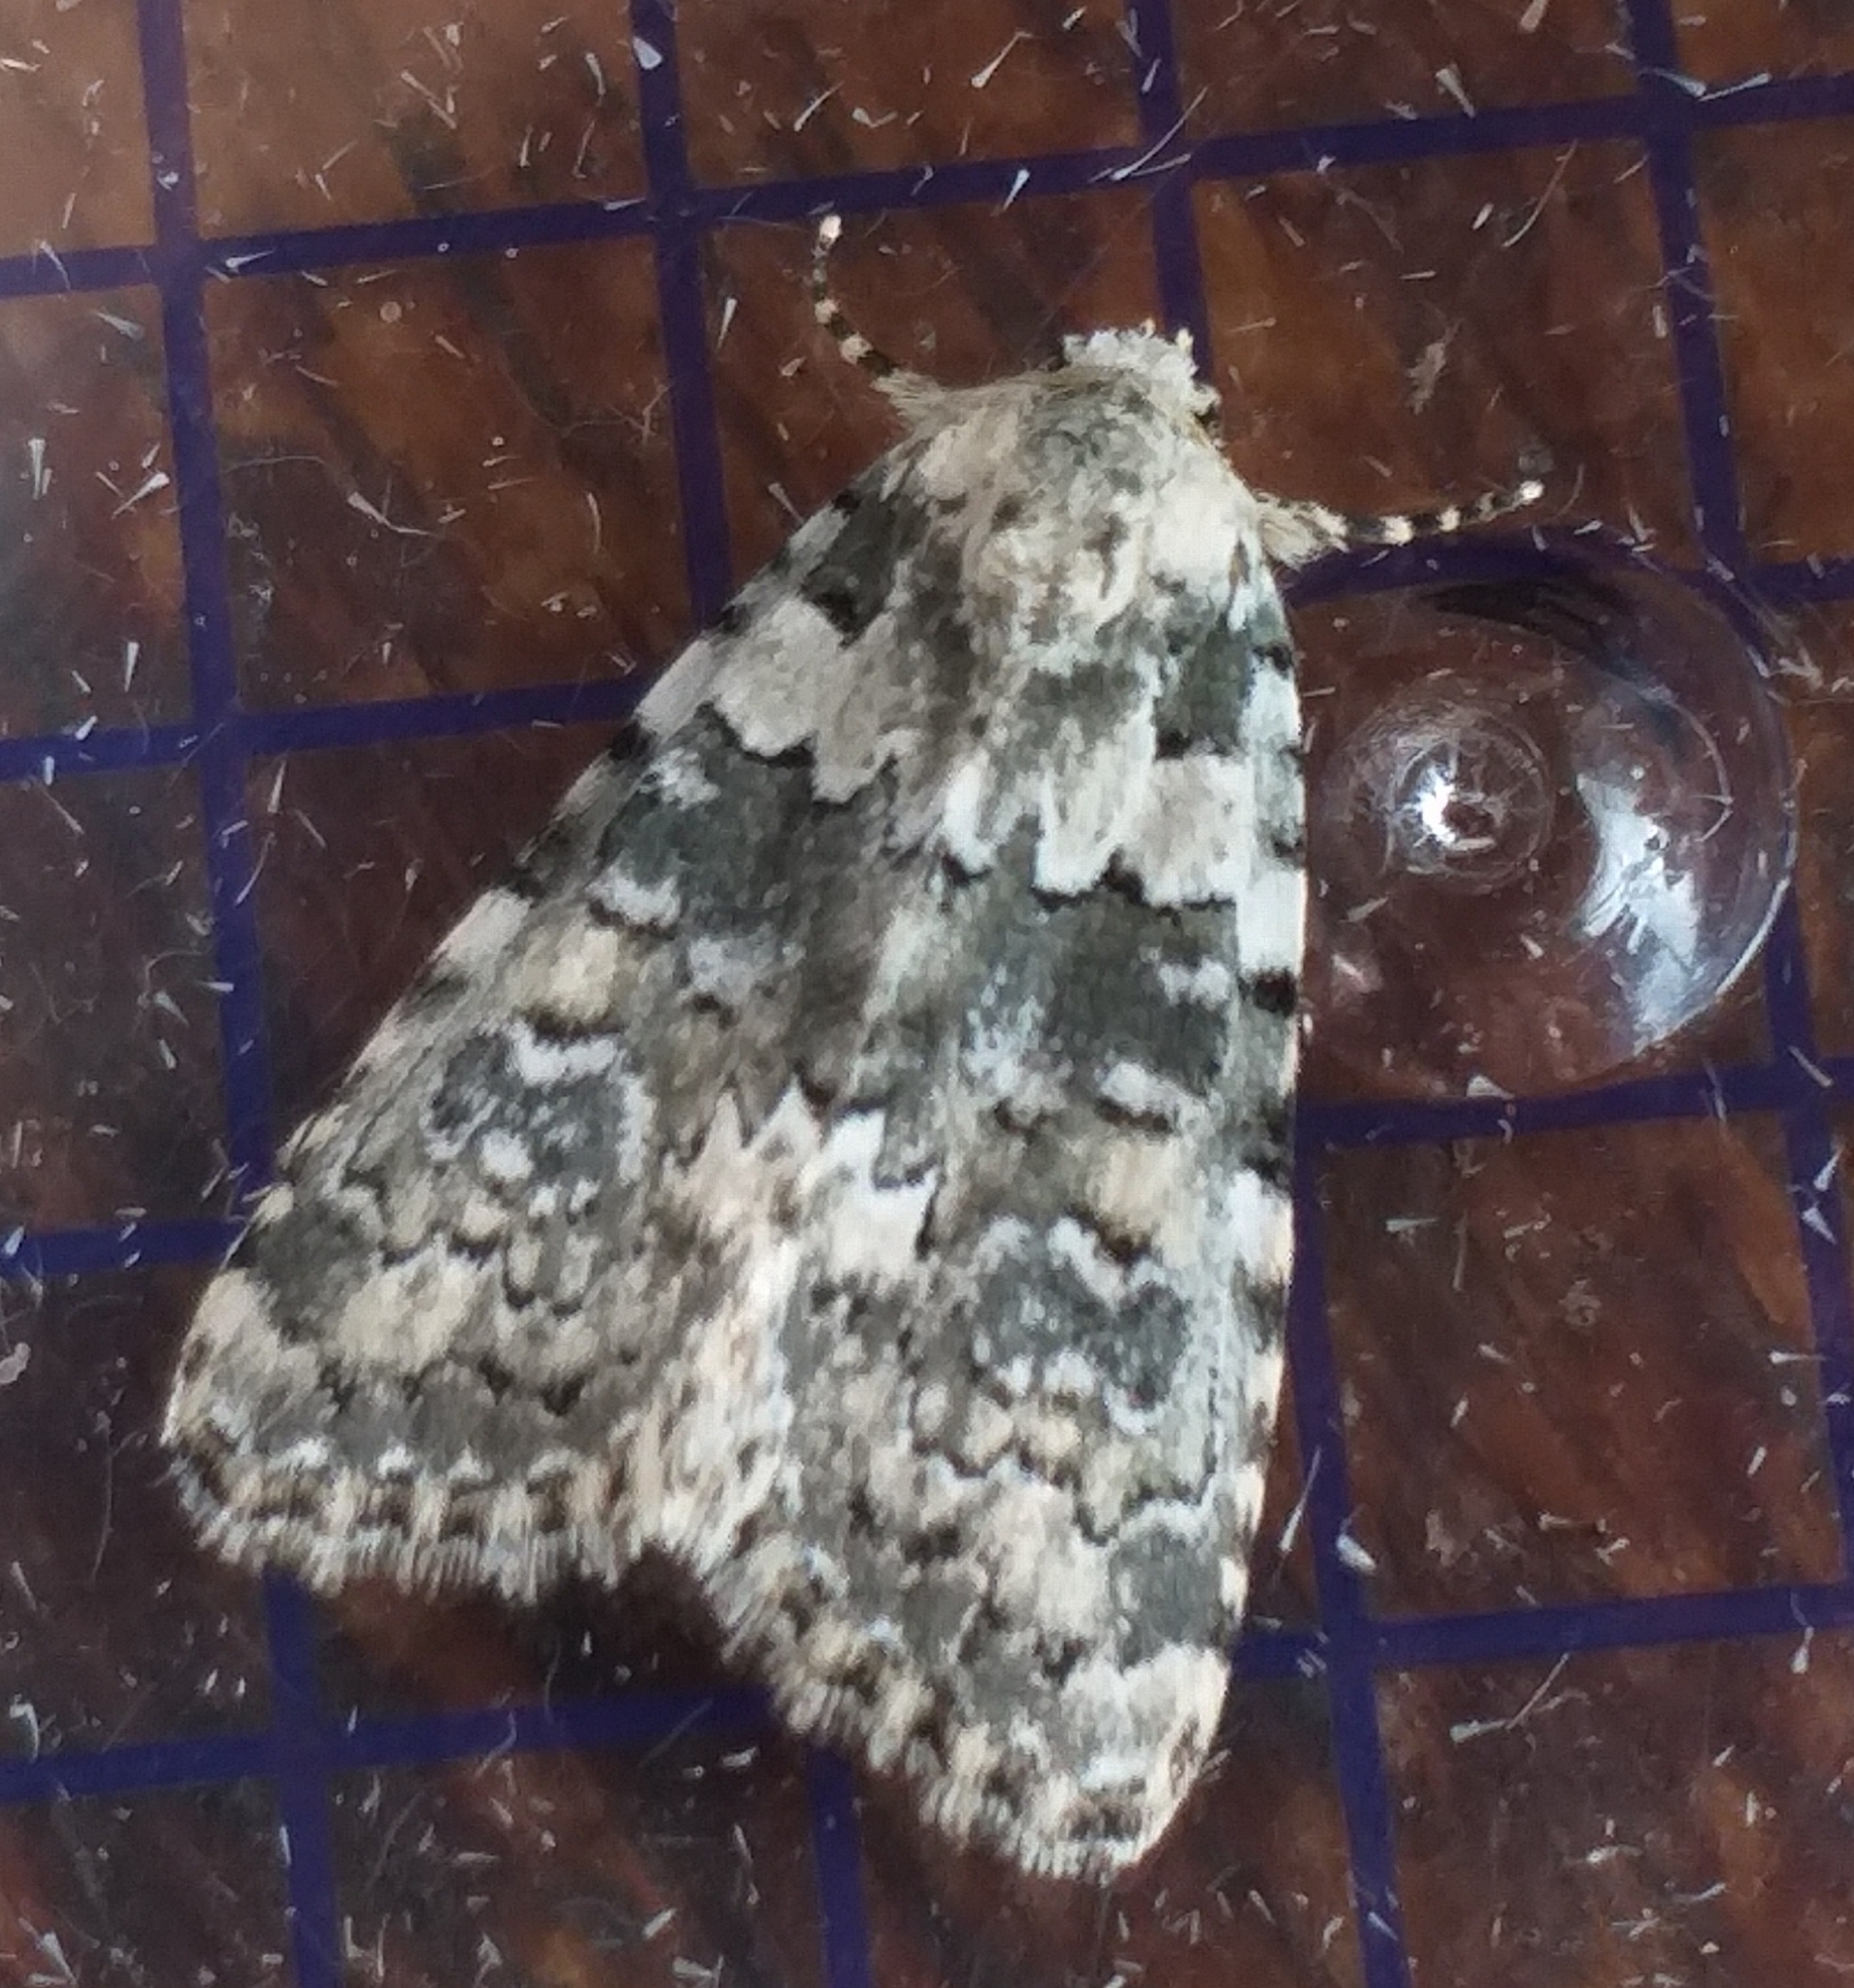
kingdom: Animalia
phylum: Arthropoda
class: Insecta
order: Lepidoptera
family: Noctuidae
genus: Bryophila
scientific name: Bryophila domestica
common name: Marbled beauty
